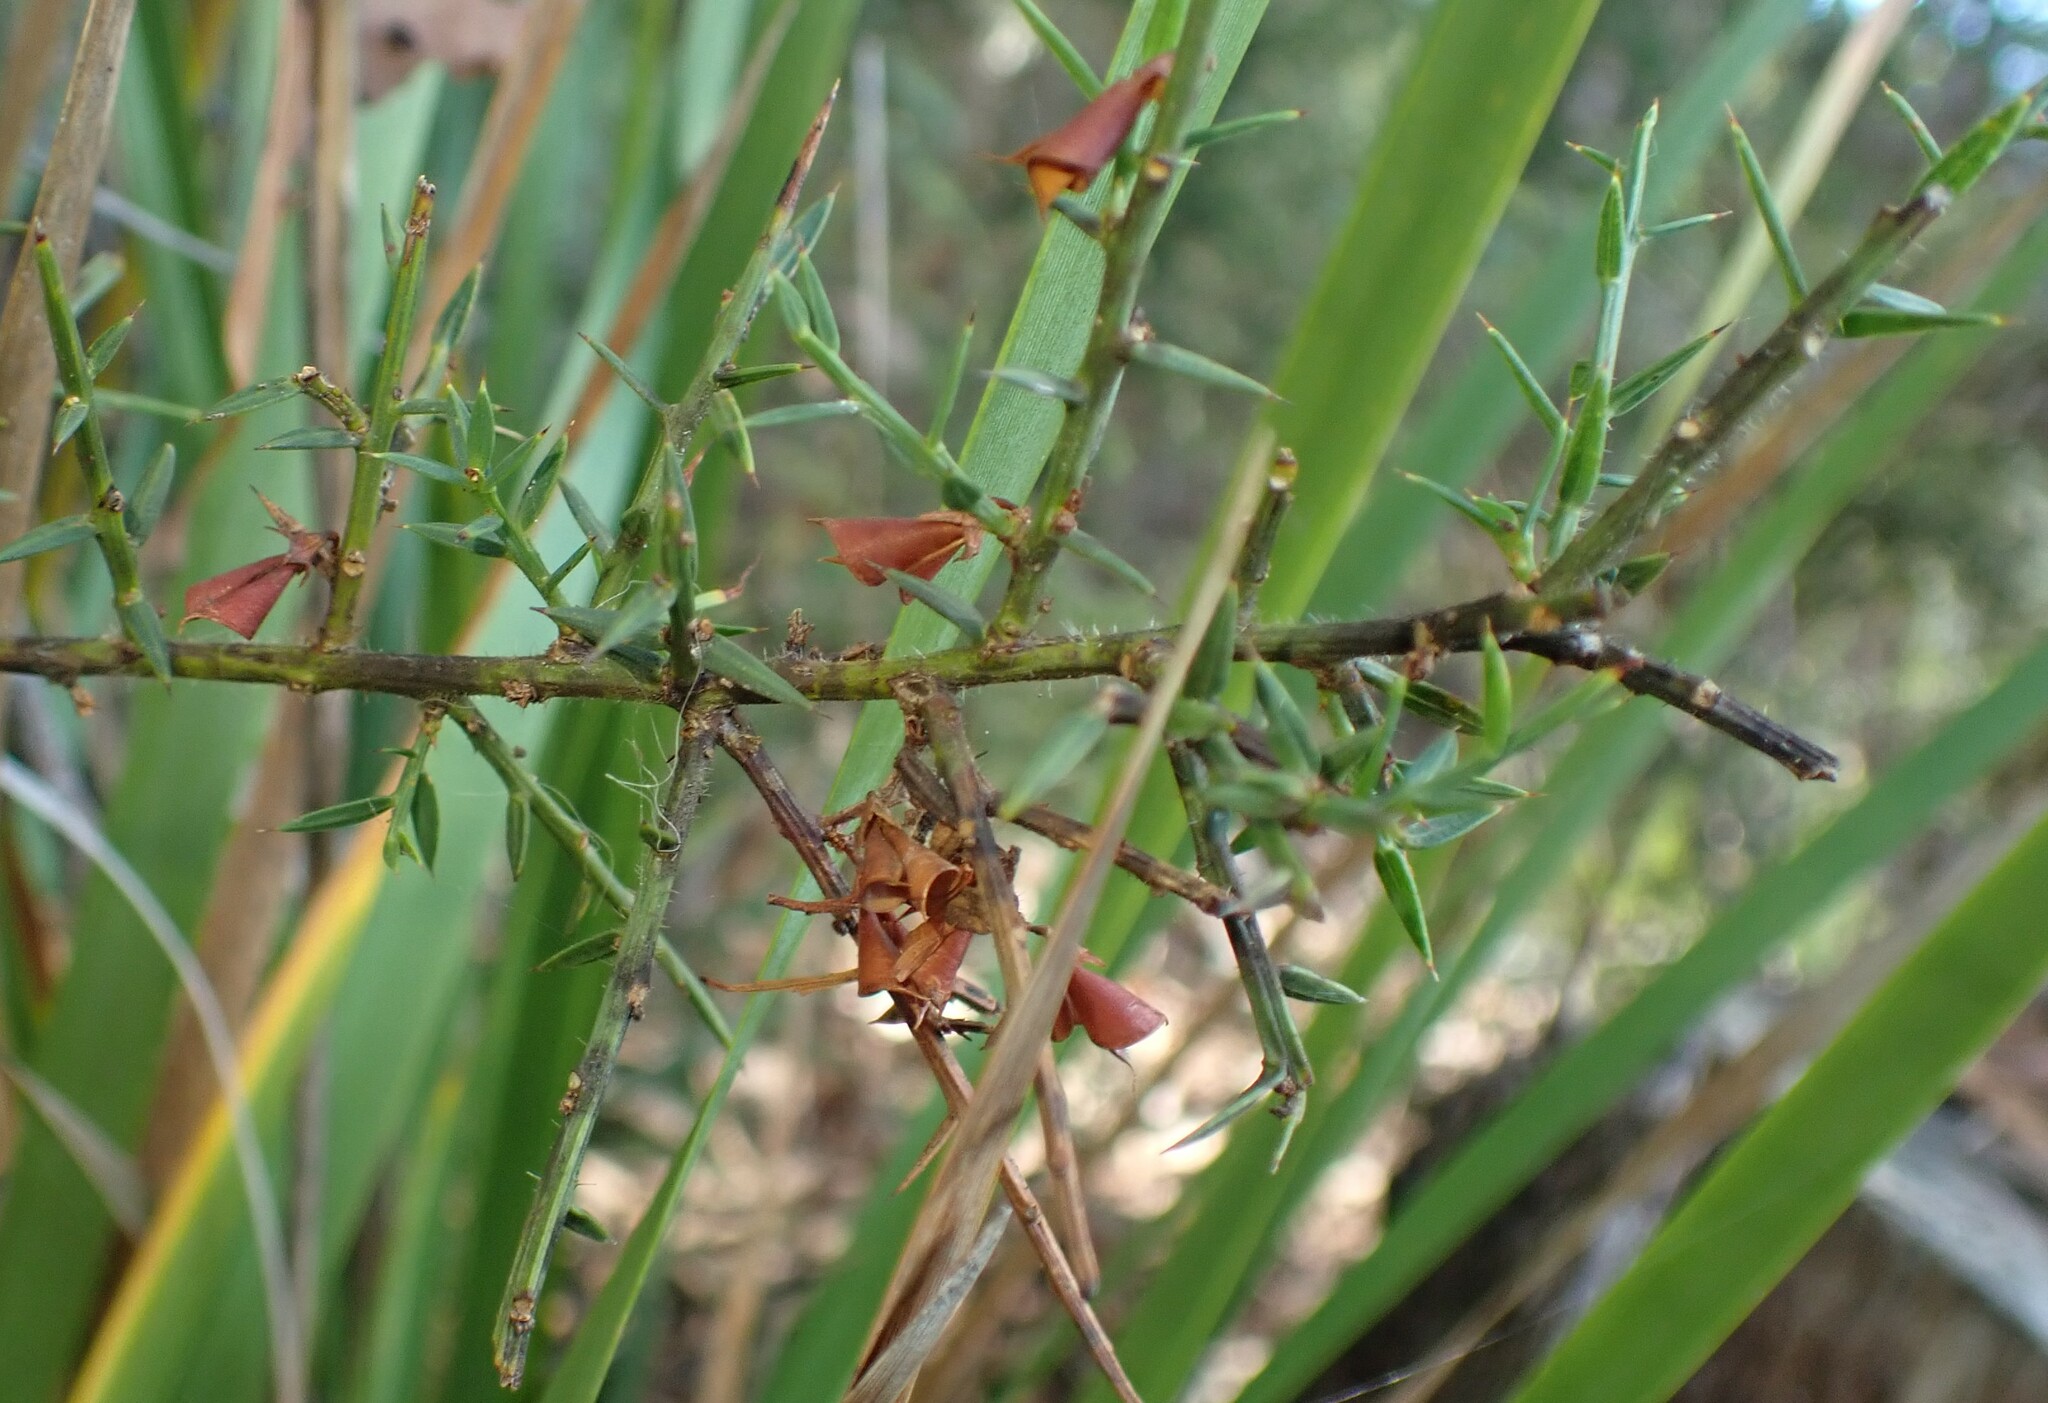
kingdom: Plantae
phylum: Tracheophyta
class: Magnoliopsida
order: Fabales
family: Fabaceae
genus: Daviesia
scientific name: Daviesia ulicifolia
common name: Gorse bitter-pea
